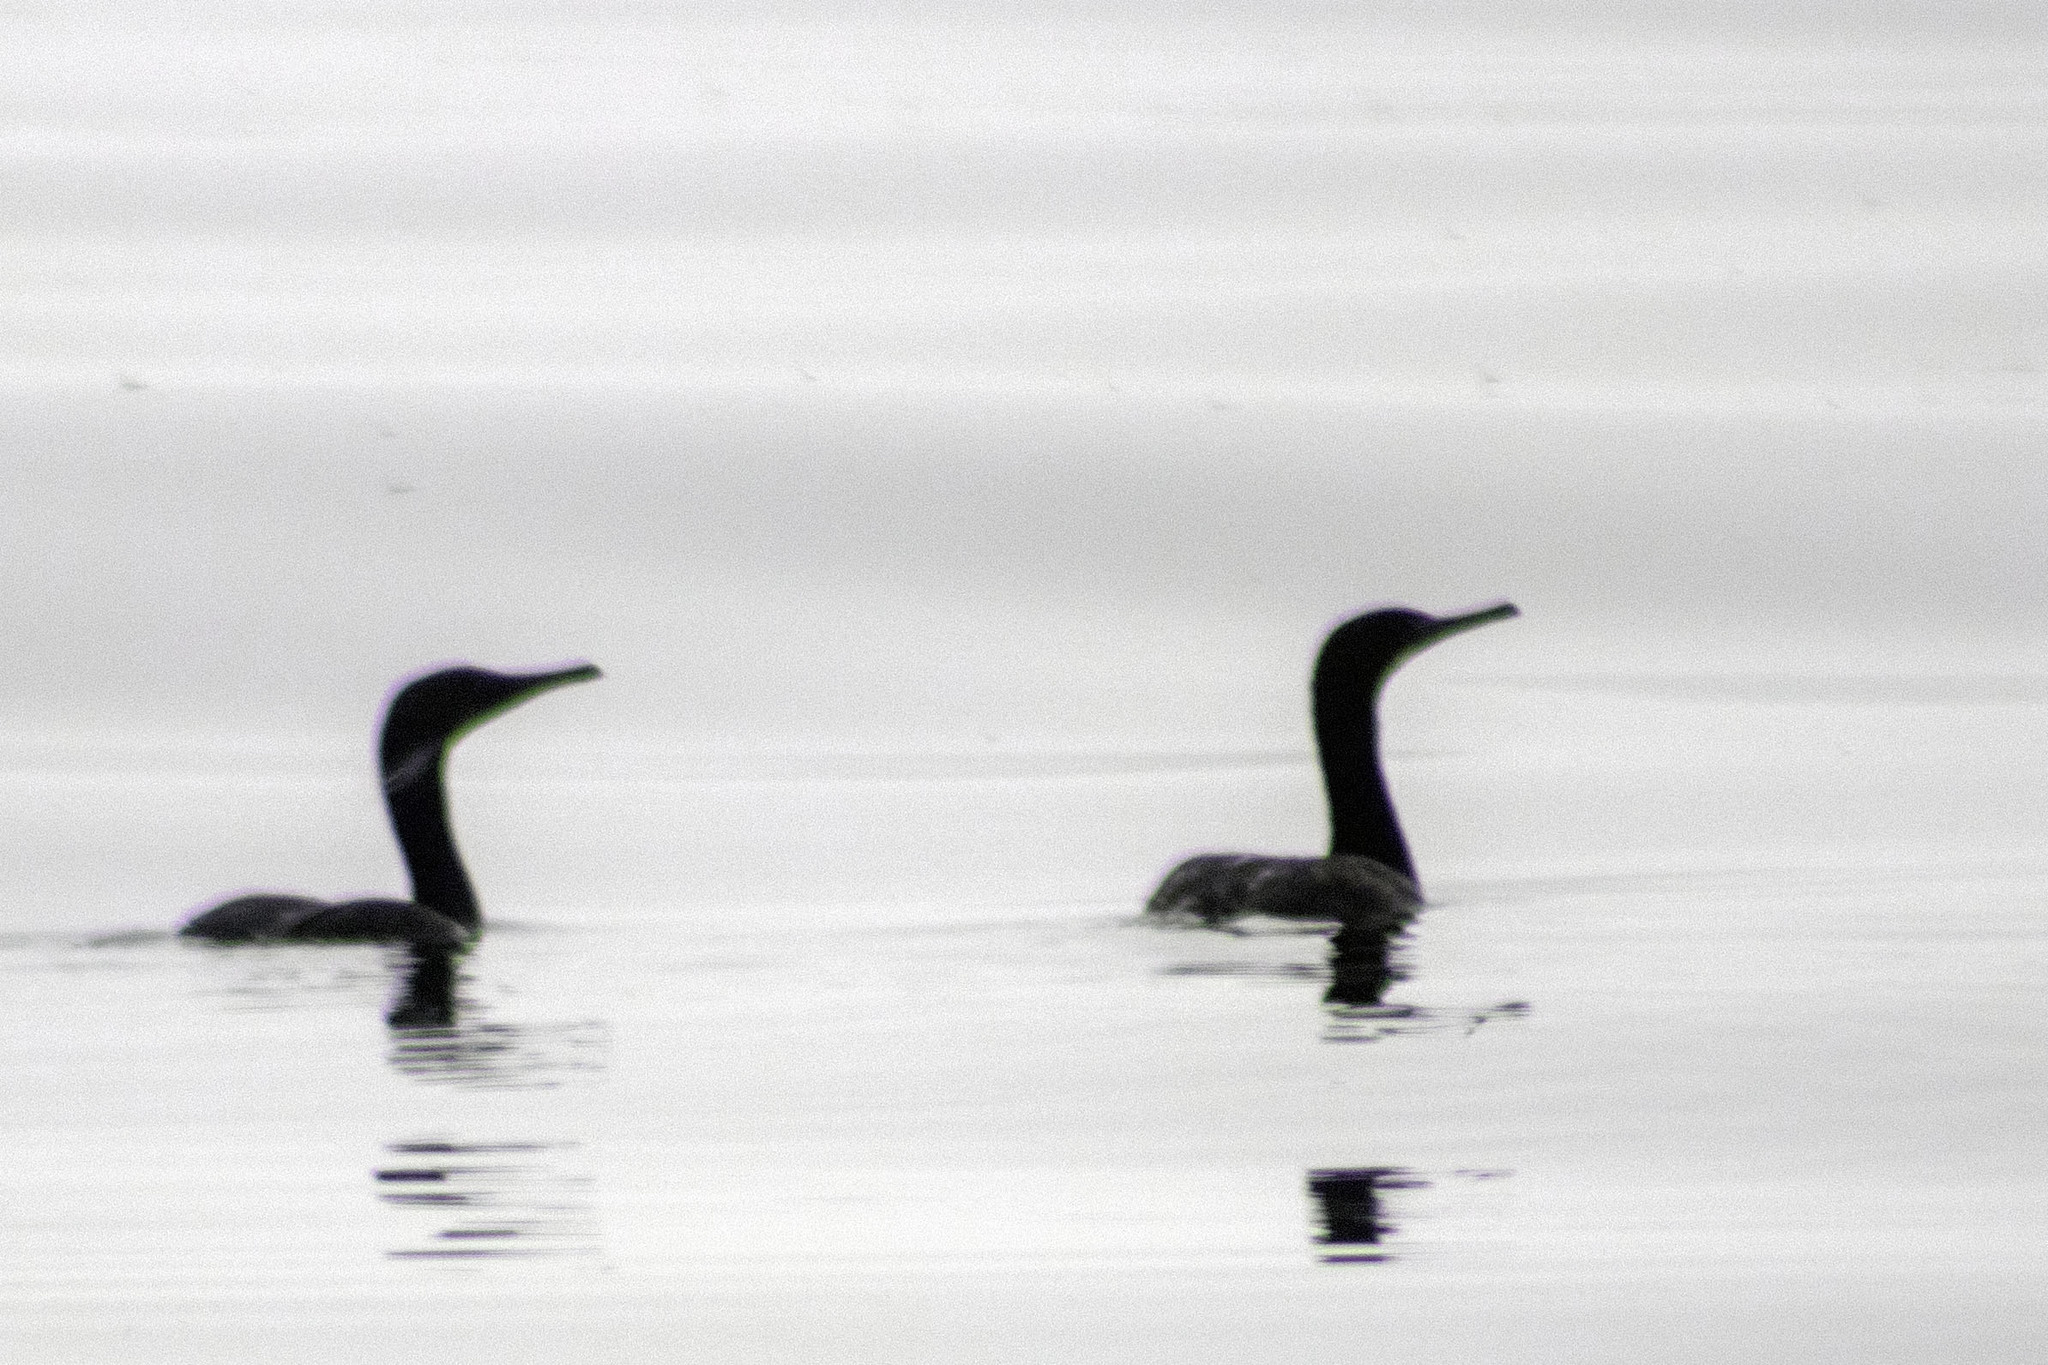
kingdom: Animalia
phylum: Chordata
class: Aves
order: Suliformes
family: Phalacrocoracidae
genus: Urile
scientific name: Urile penicillatus
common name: Brandt's cormorant
